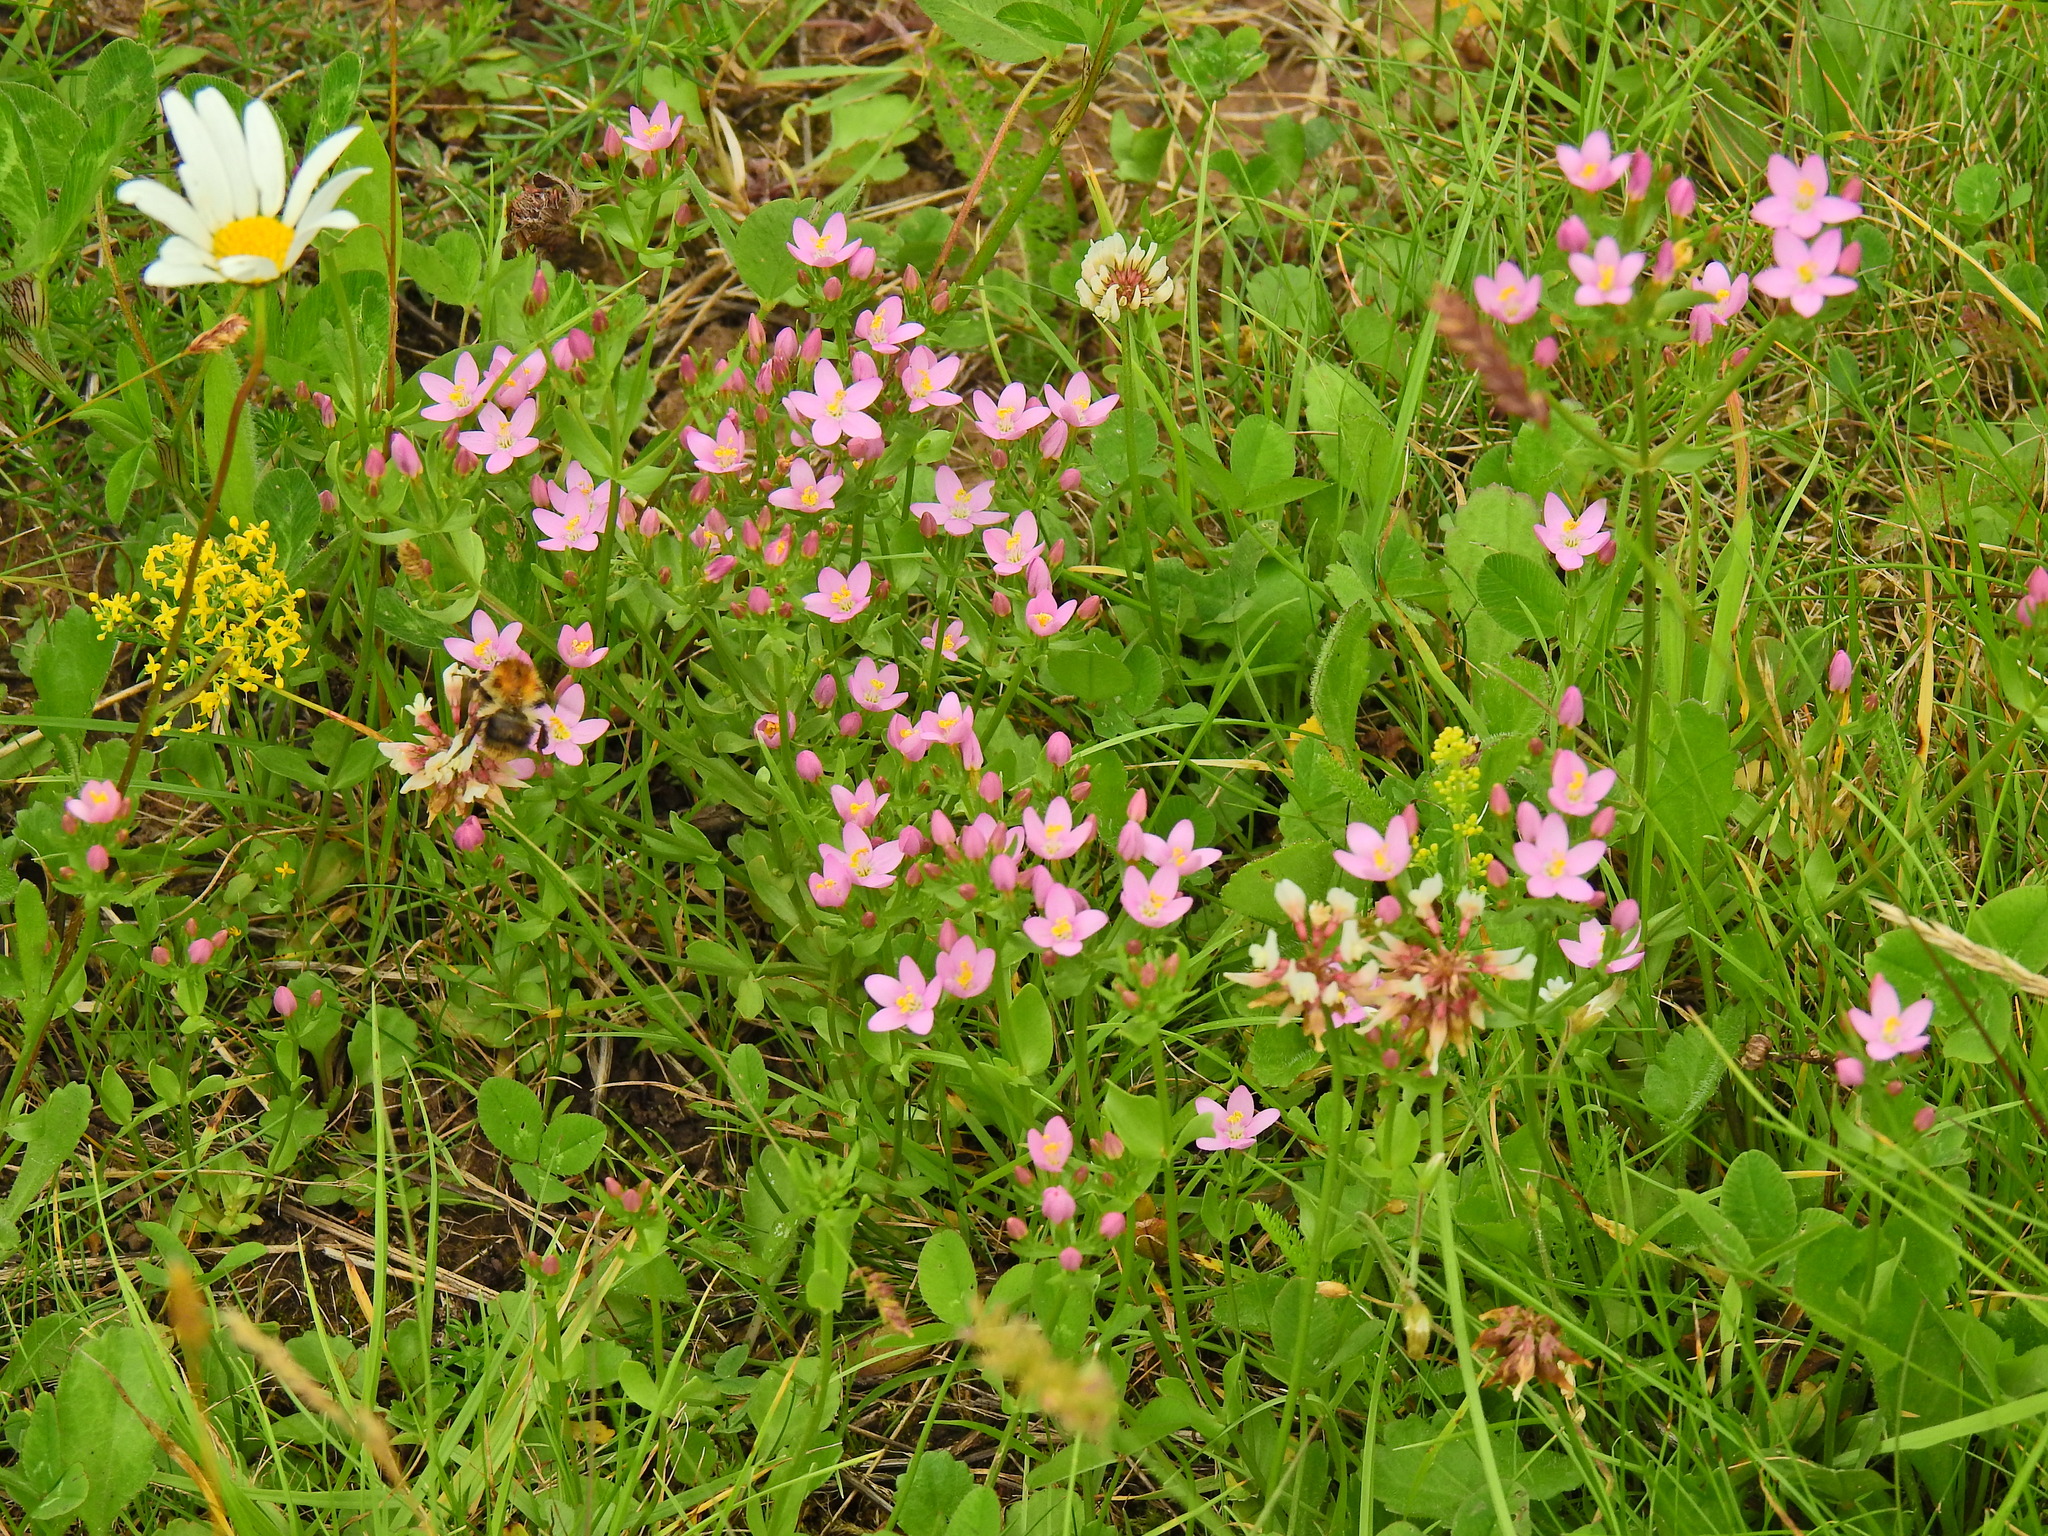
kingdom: Plantae
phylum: Tracheophyta
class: Magnoliopsida
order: Gentianales
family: Gentianaceae
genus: Centaurium
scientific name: Centaurium erythraea
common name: Common centaury
